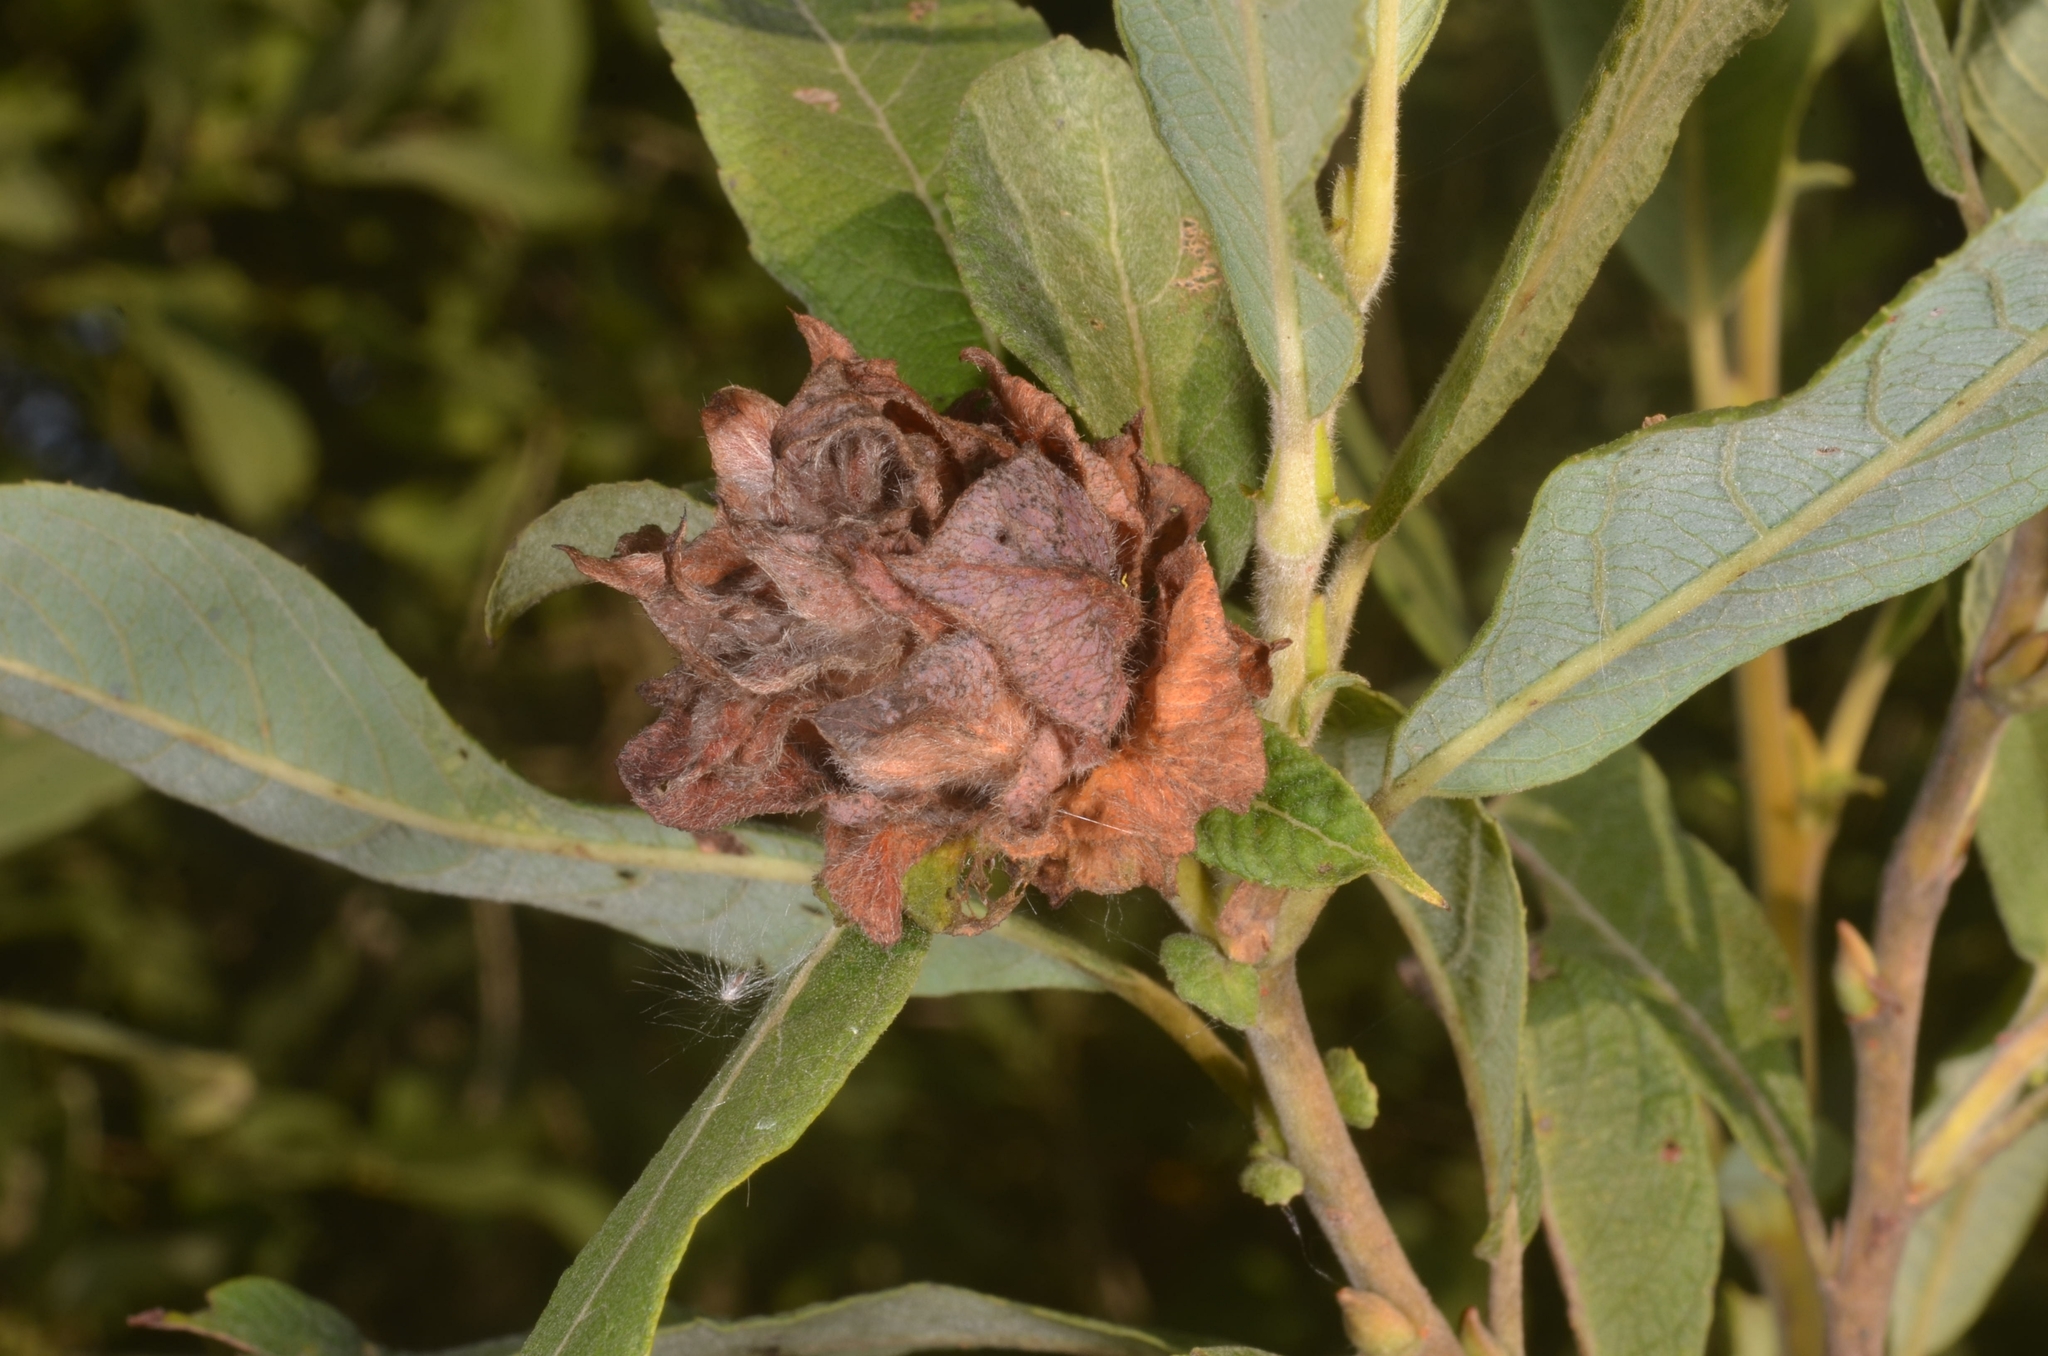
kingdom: Animalia
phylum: Arthropoda
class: Insecta
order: Diptera
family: Cecidomyiidae
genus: Rabdophaga
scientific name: Rabdophaga rosaria
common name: Willow rose gall midge
